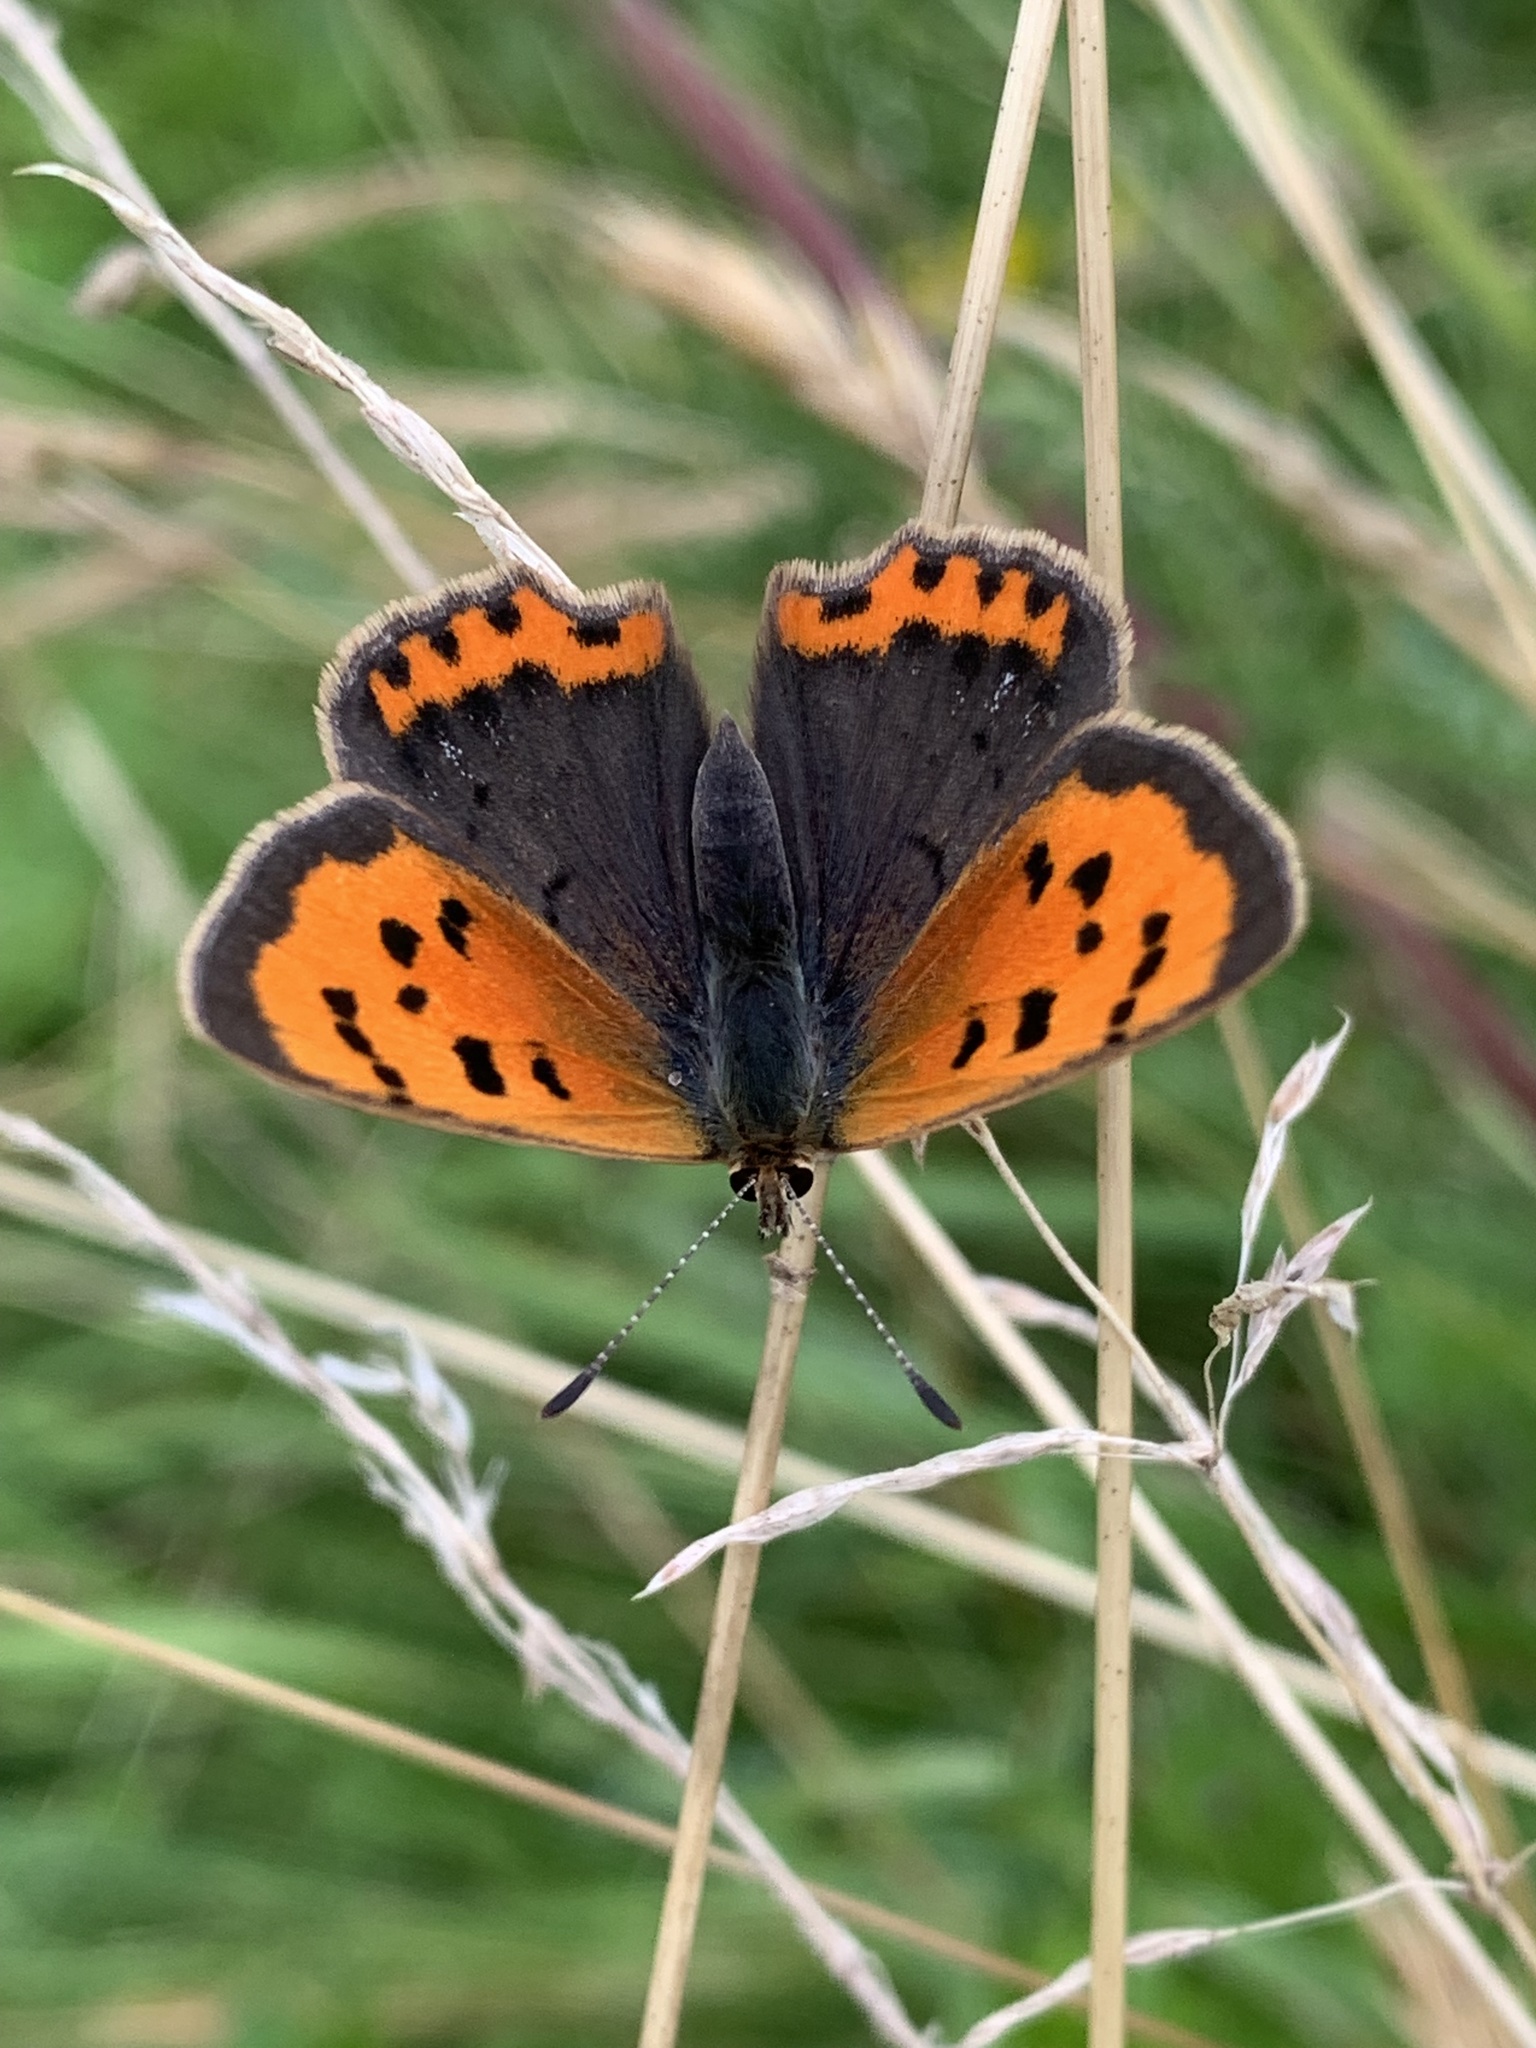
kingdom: Animalia
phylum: Arthropoda
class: Insecta
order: Lepidoptera
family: Lycaenidae
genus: Lycaena
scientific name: Lycaena phlaeas
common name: Small copper
